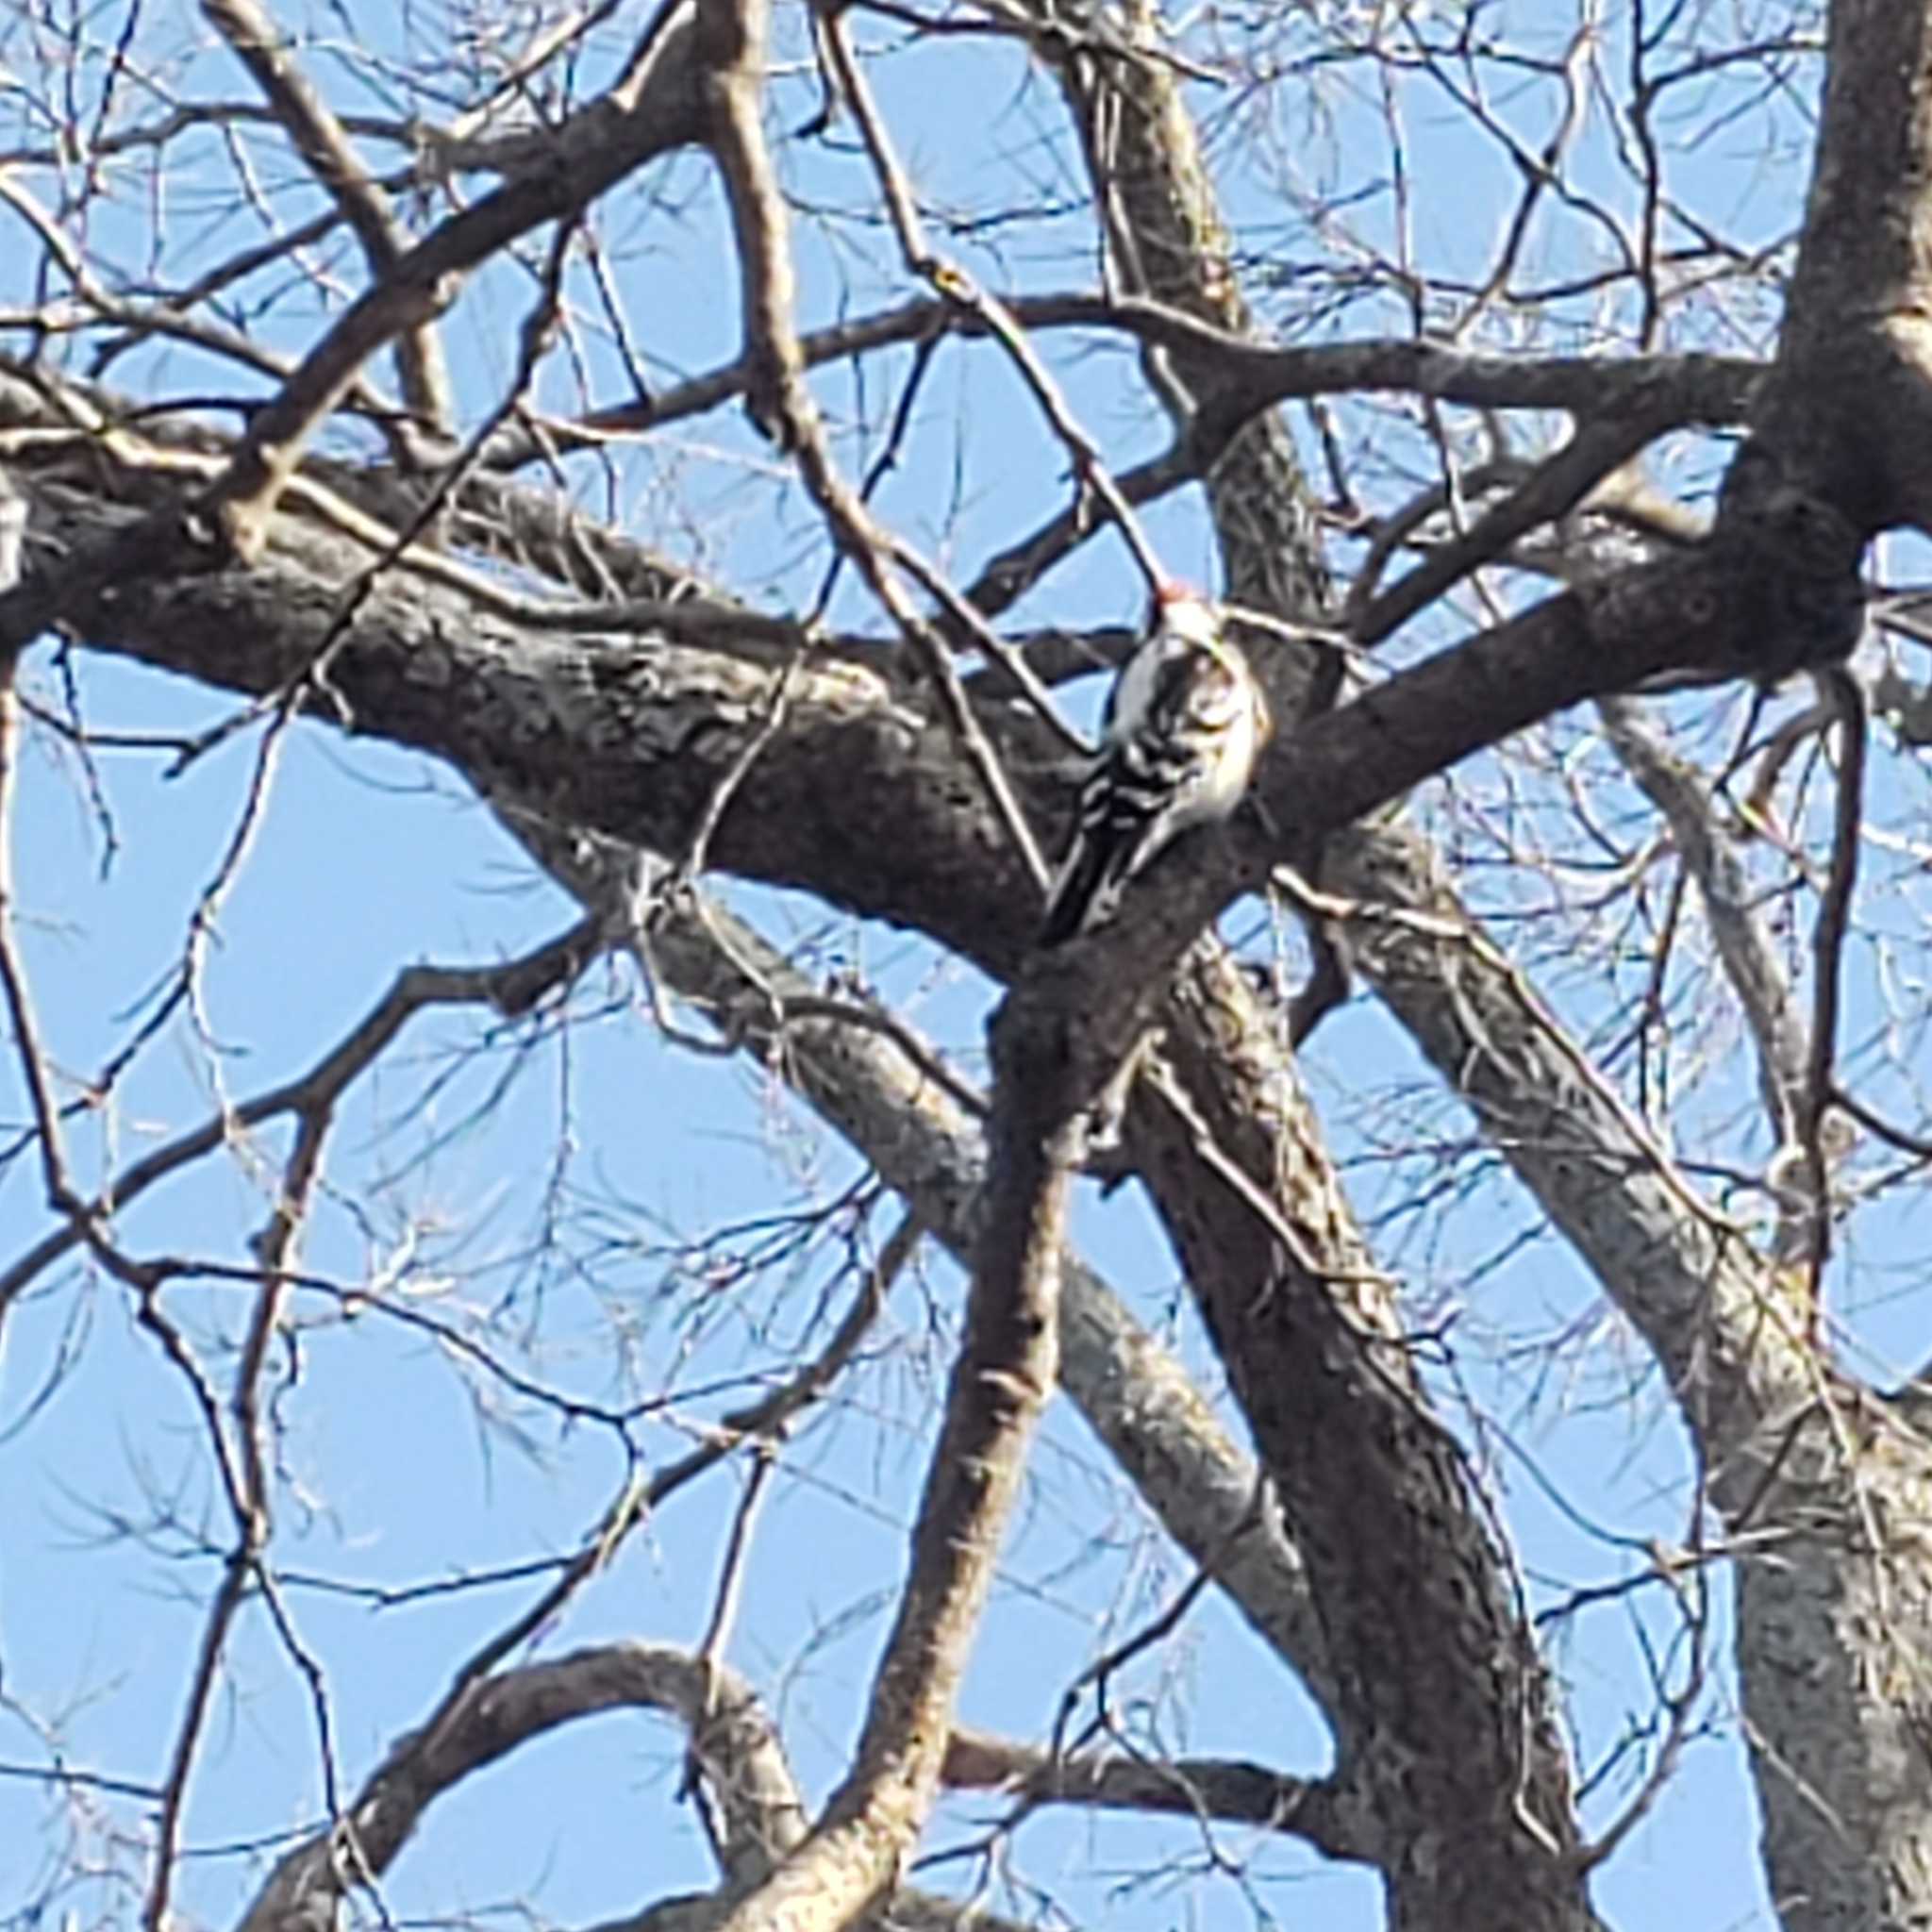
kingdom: Animalia
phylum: Chordata
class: Aves
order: Piciformes
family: Picidae
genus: Dryobates
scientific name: Dryobates pubescens
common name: Downy woodpecker
